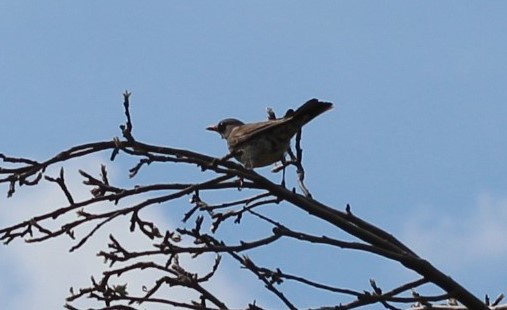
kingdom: Animalia
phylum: Chordata
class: Aves
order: Passeriformes
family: Turdidae
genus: Turdus
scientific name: Turdus pilaris
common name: Fieldfare
